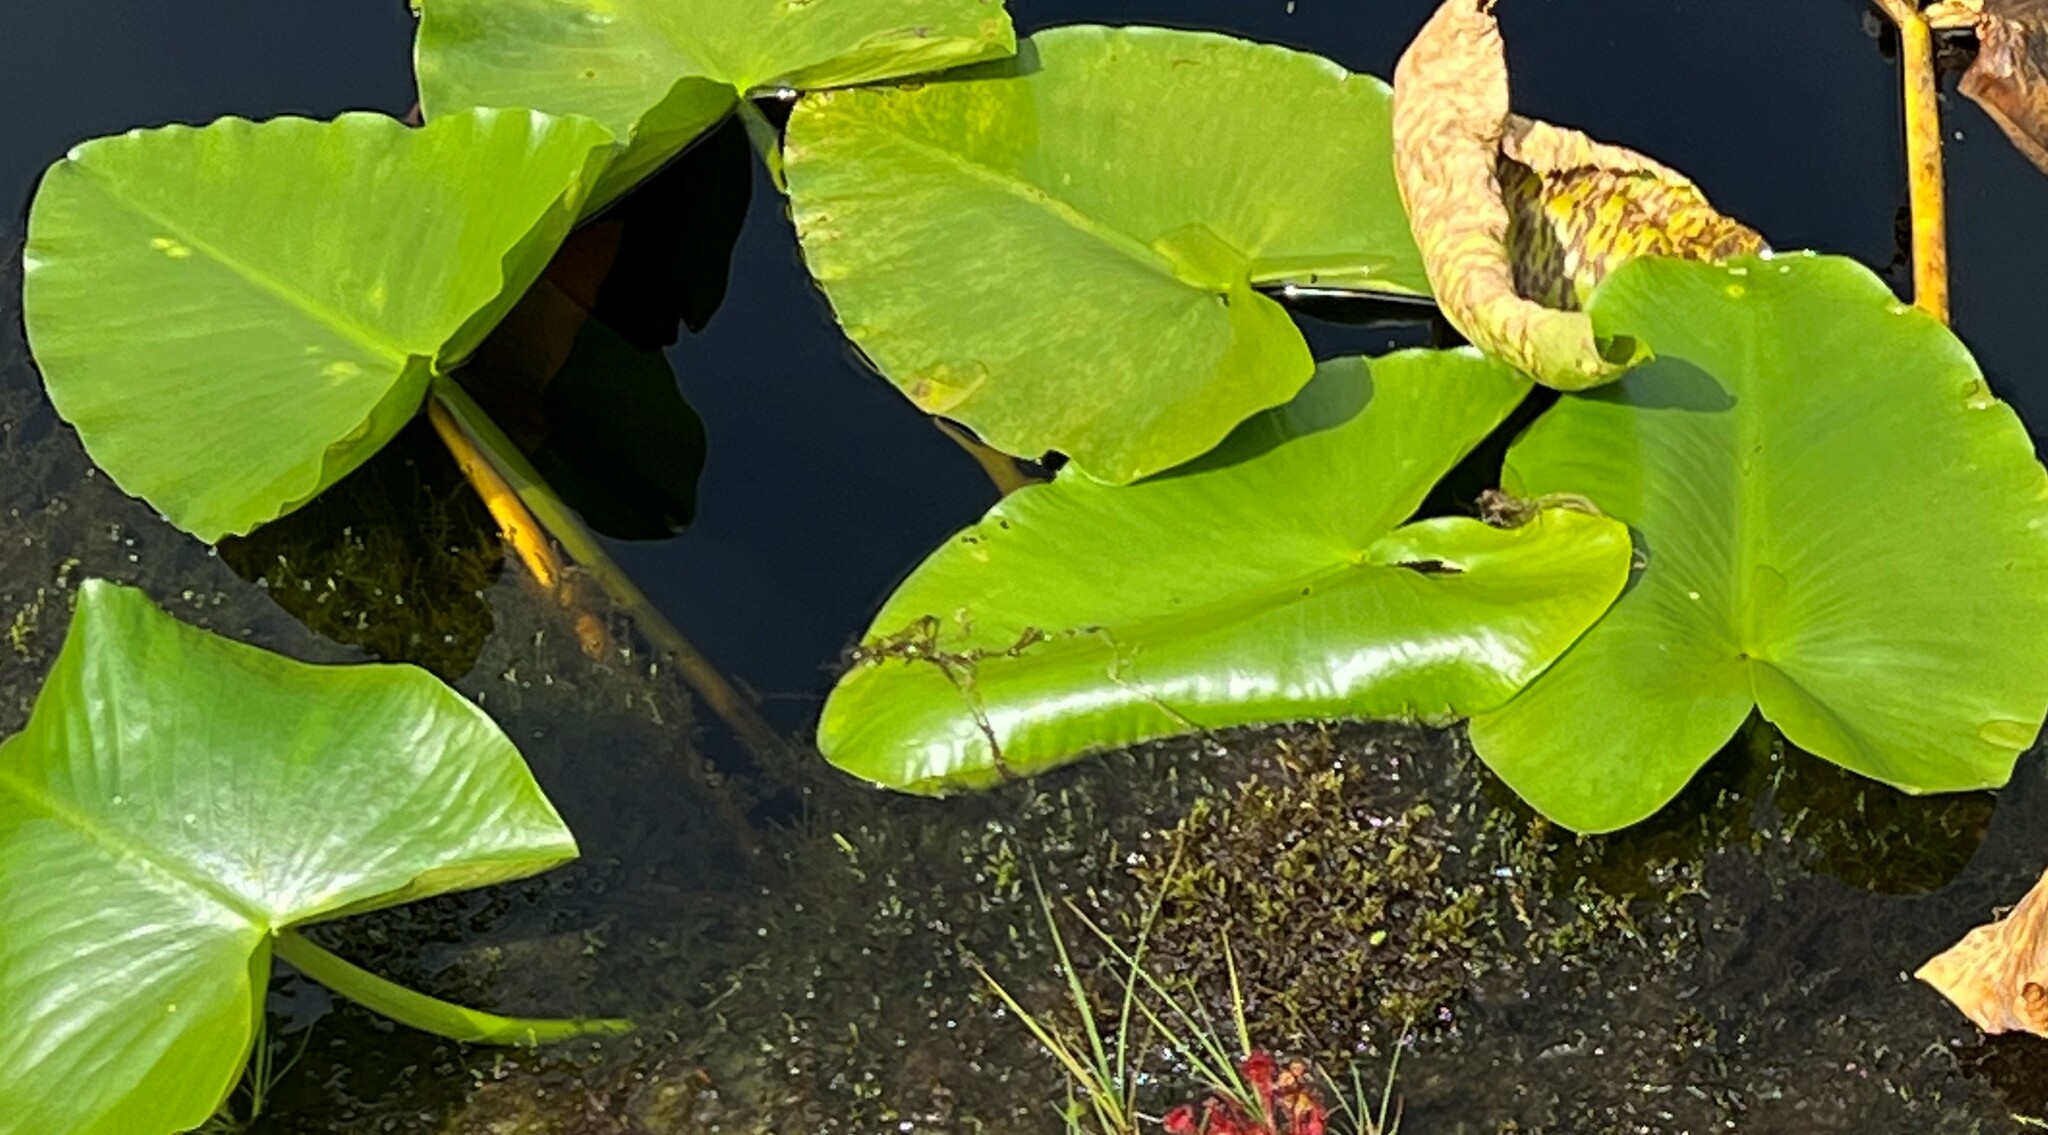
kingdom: Plantae
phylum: Tracheophyta
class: Magnoliopsida
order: Nymphaeales
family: Nymphaeaceae
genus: Nuphar
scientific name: Nuphar polysepala
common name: Rocky mountain cow-lily
